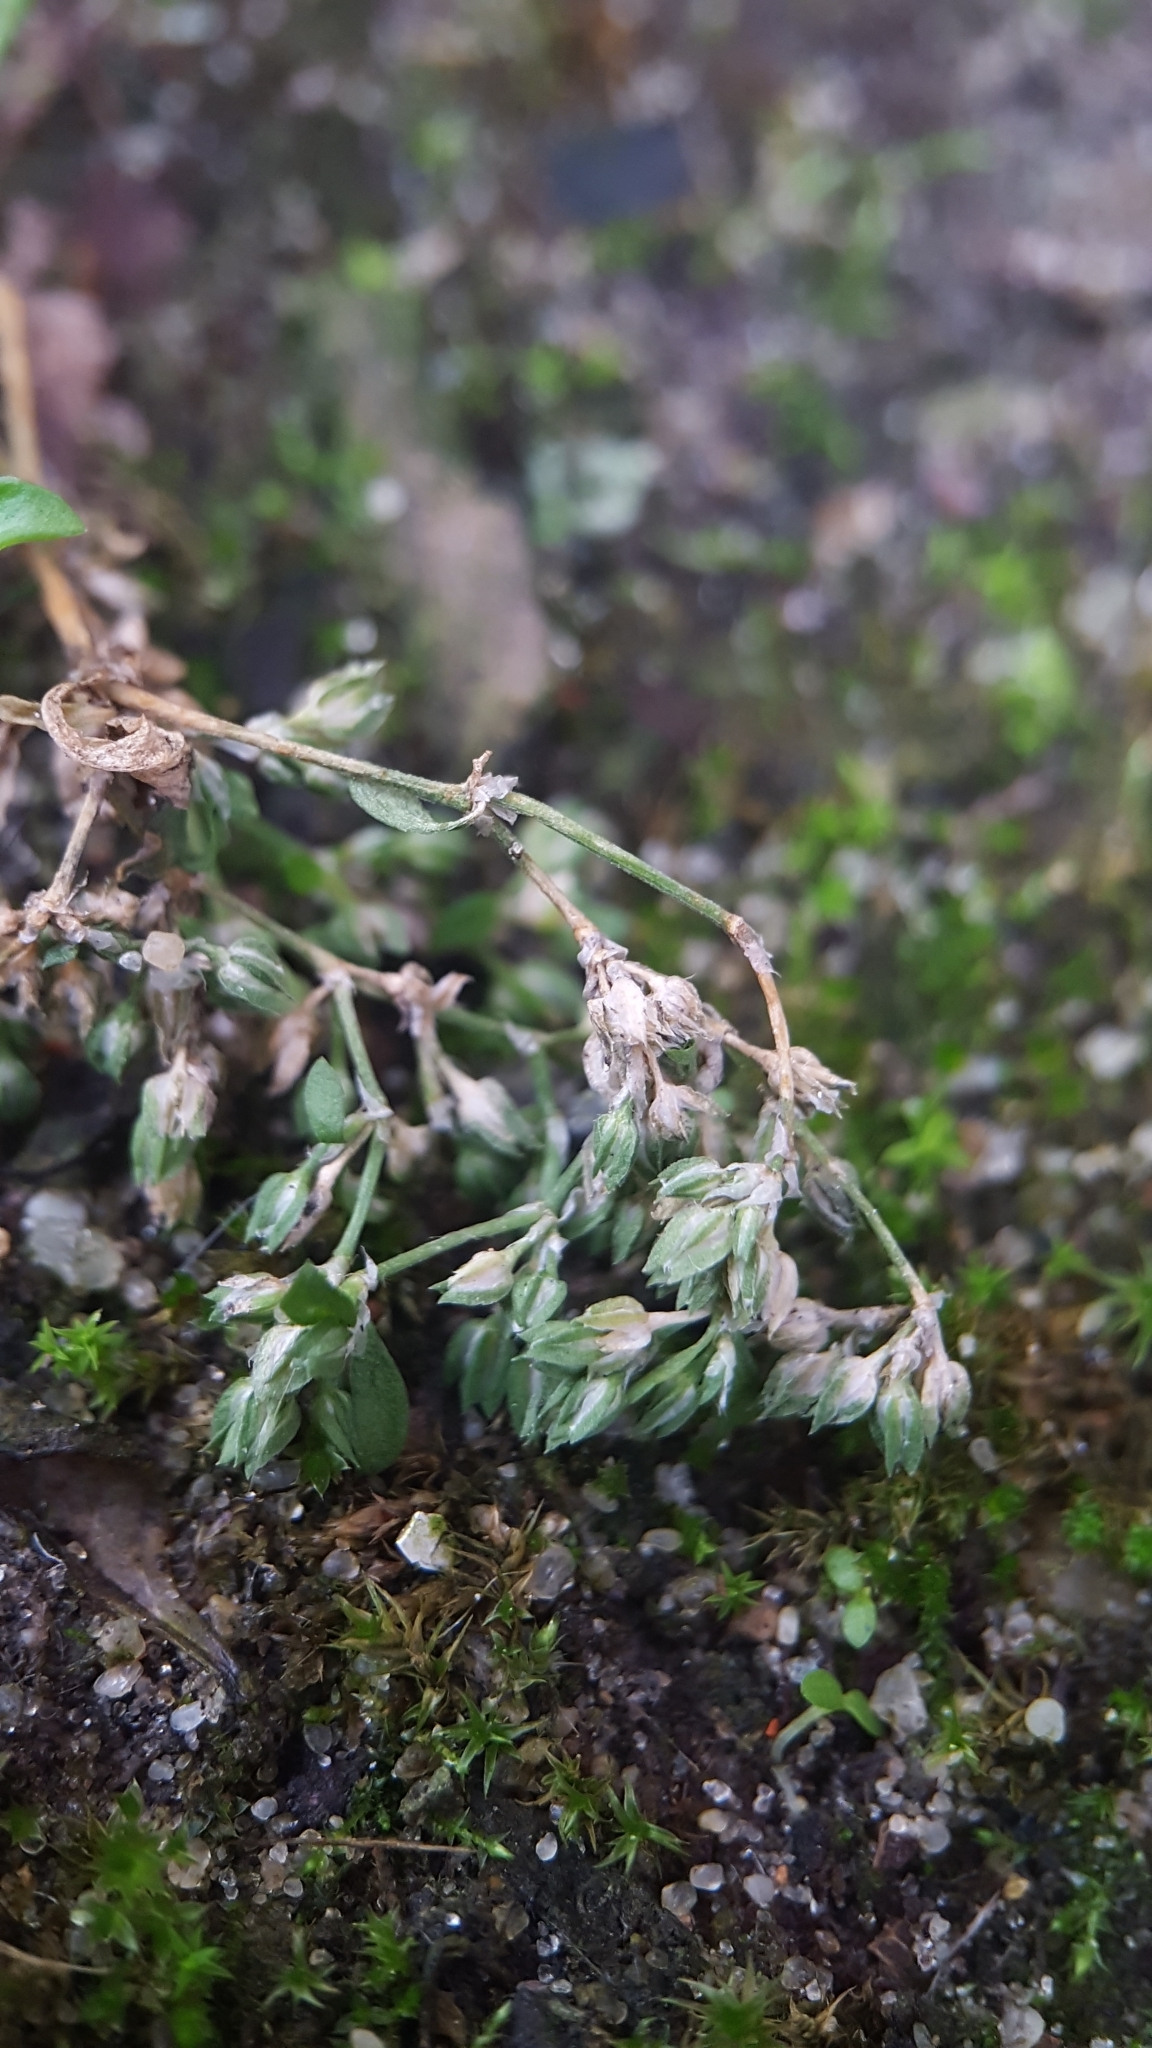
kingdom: Plantae
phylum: Tracheophyta
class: Magnoliopsida
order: Caryophyllales
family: Caryophyllaceae
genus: Polycarpon
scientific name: Polycarpon tetraphyllum
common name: Four-leaved all-seed
